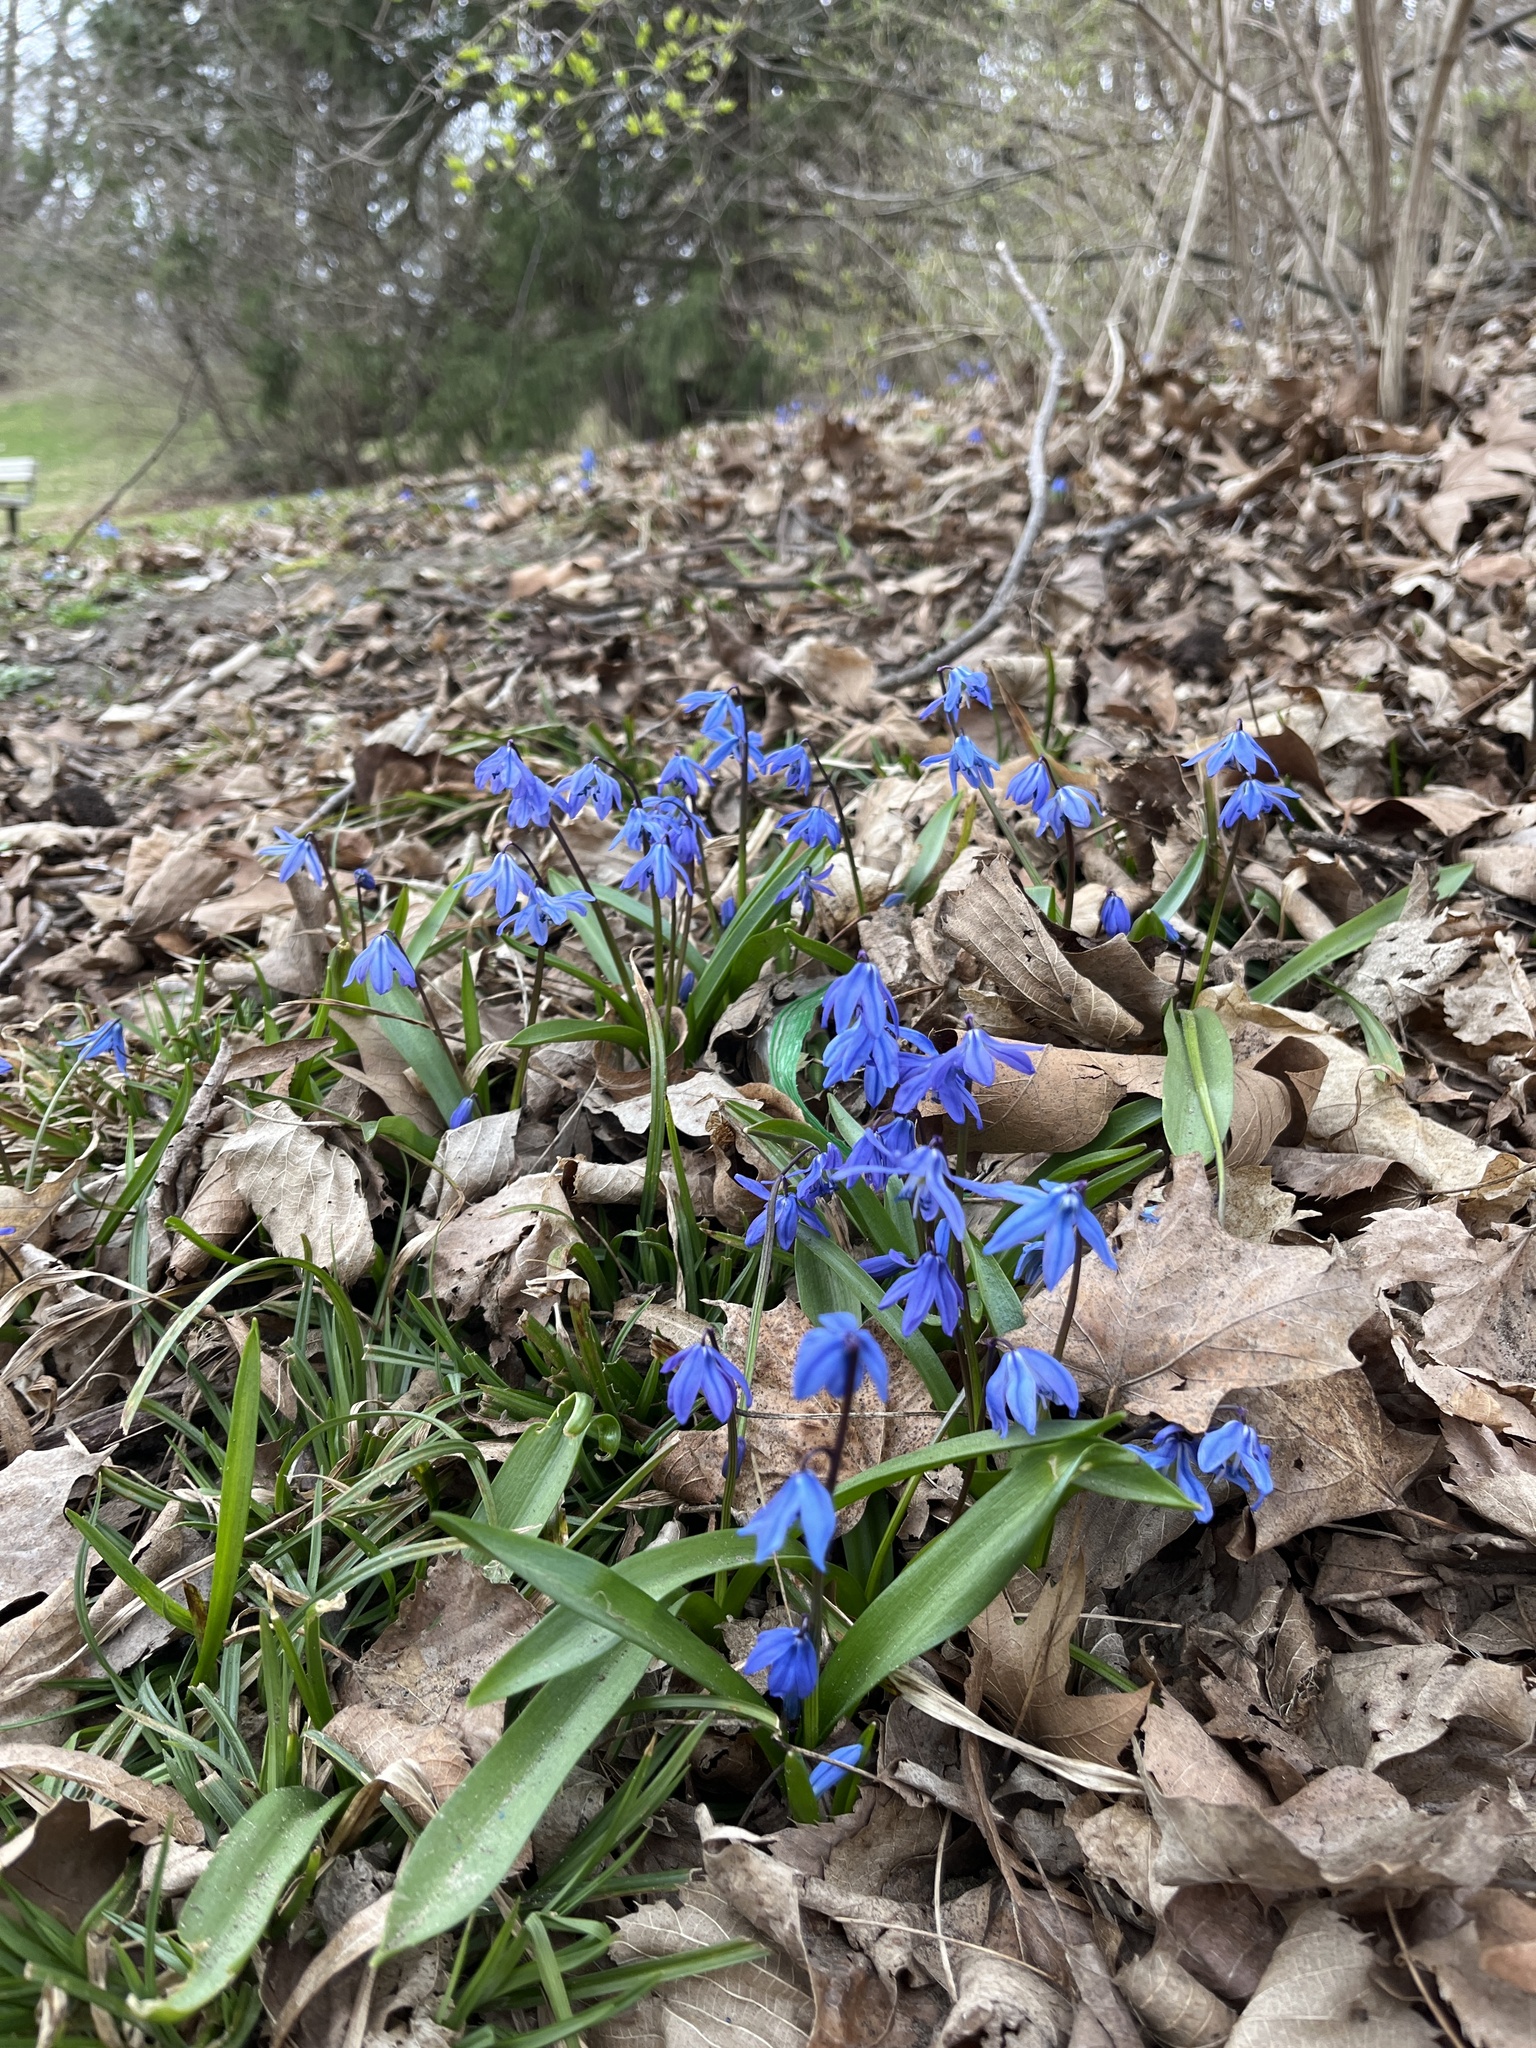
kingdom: Plantae
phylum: Tracheophyta
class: Liliopsida
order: Asparagales
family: Asparagaceae
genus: Scilla
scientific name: Scilla siberica
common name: Siberian squill
